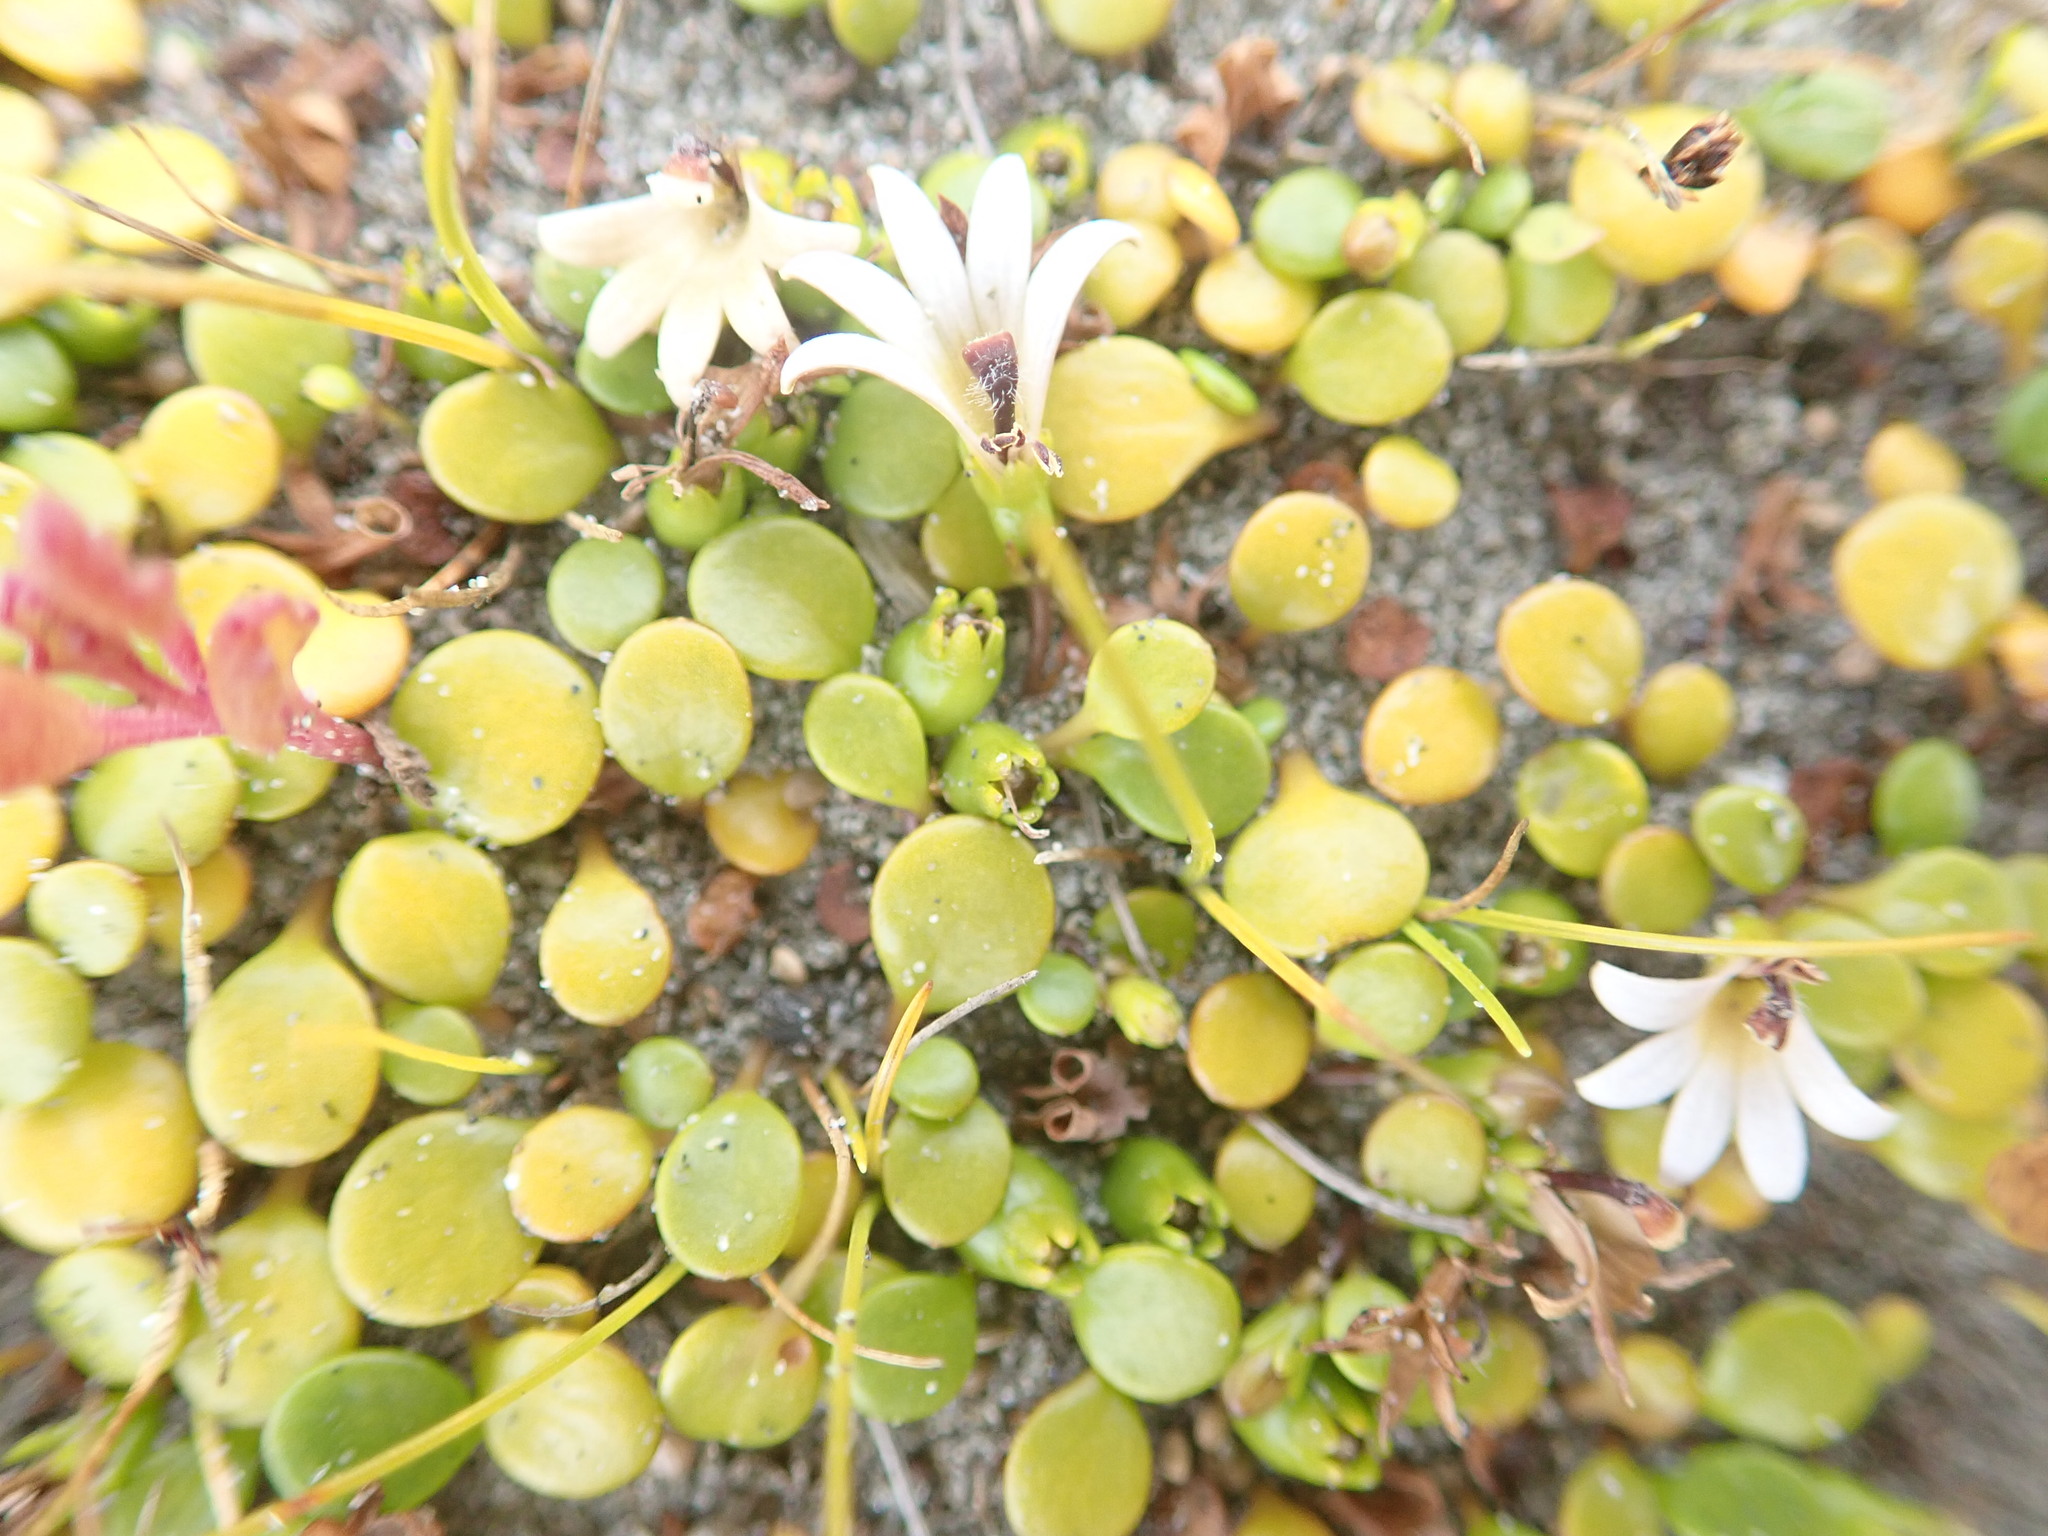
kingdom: Plantae
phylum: Tracheophyta
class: Magnoliopsida
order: Asterales
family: Goodeniaceae
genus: Goodenia
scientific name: Goodenia heenanii
